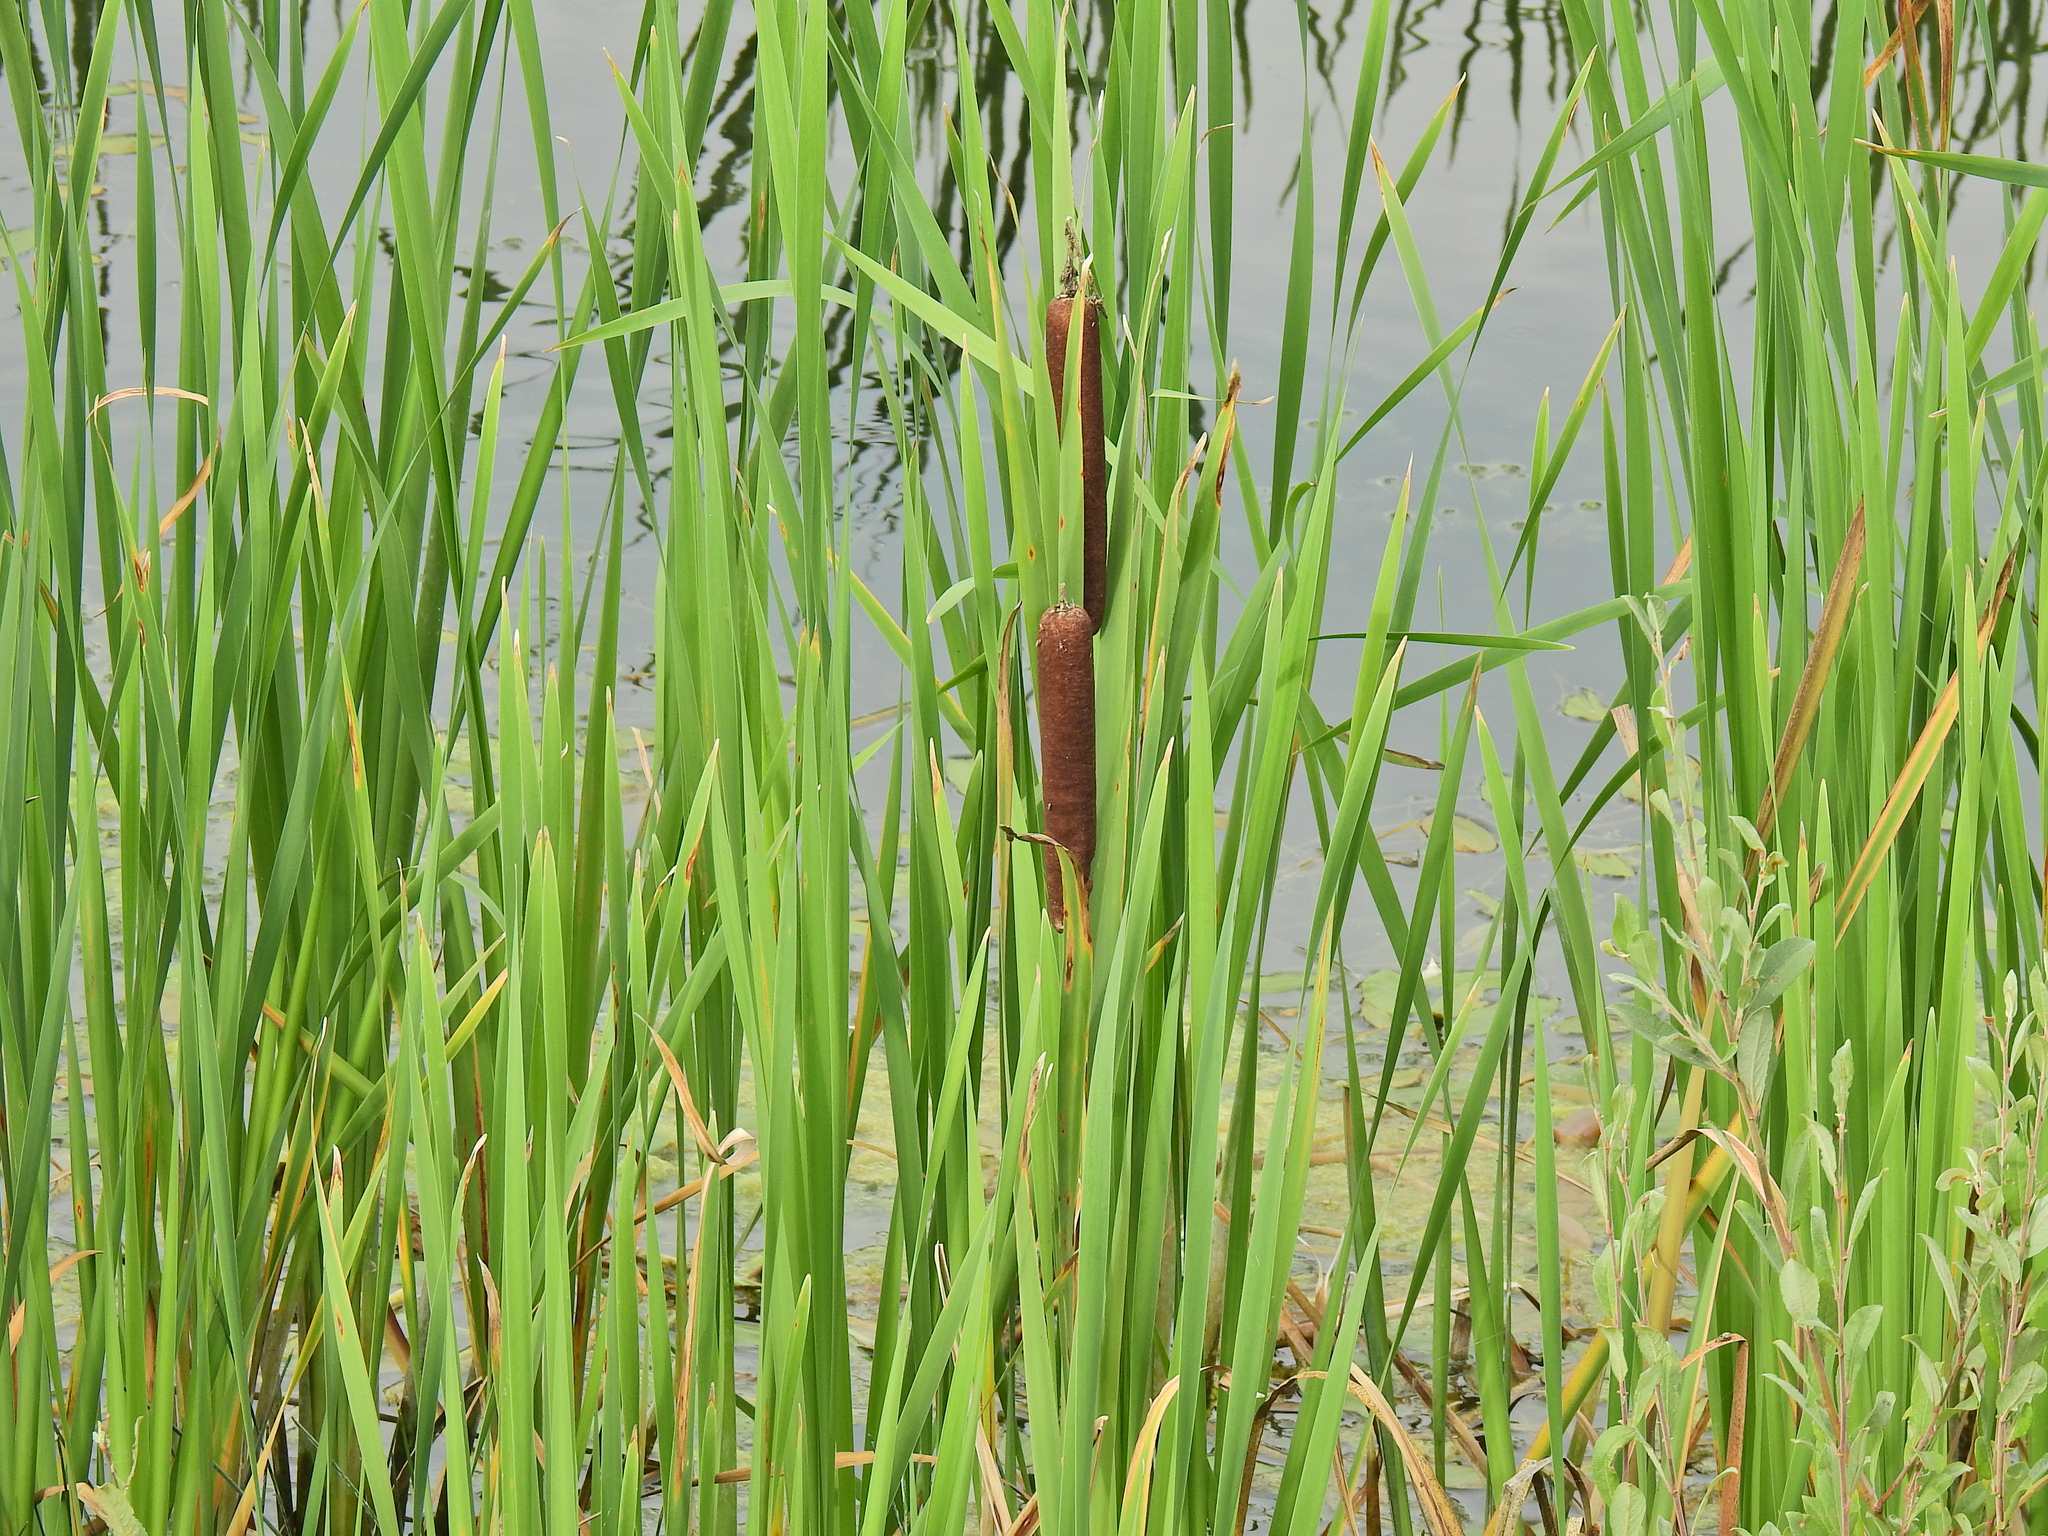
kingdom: Plantae
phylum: Tracheophyta
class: Liliopsida
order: Poales
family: Typhaceae
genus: Typha
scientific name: Typha latifolia
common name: Broadleaf cattail
